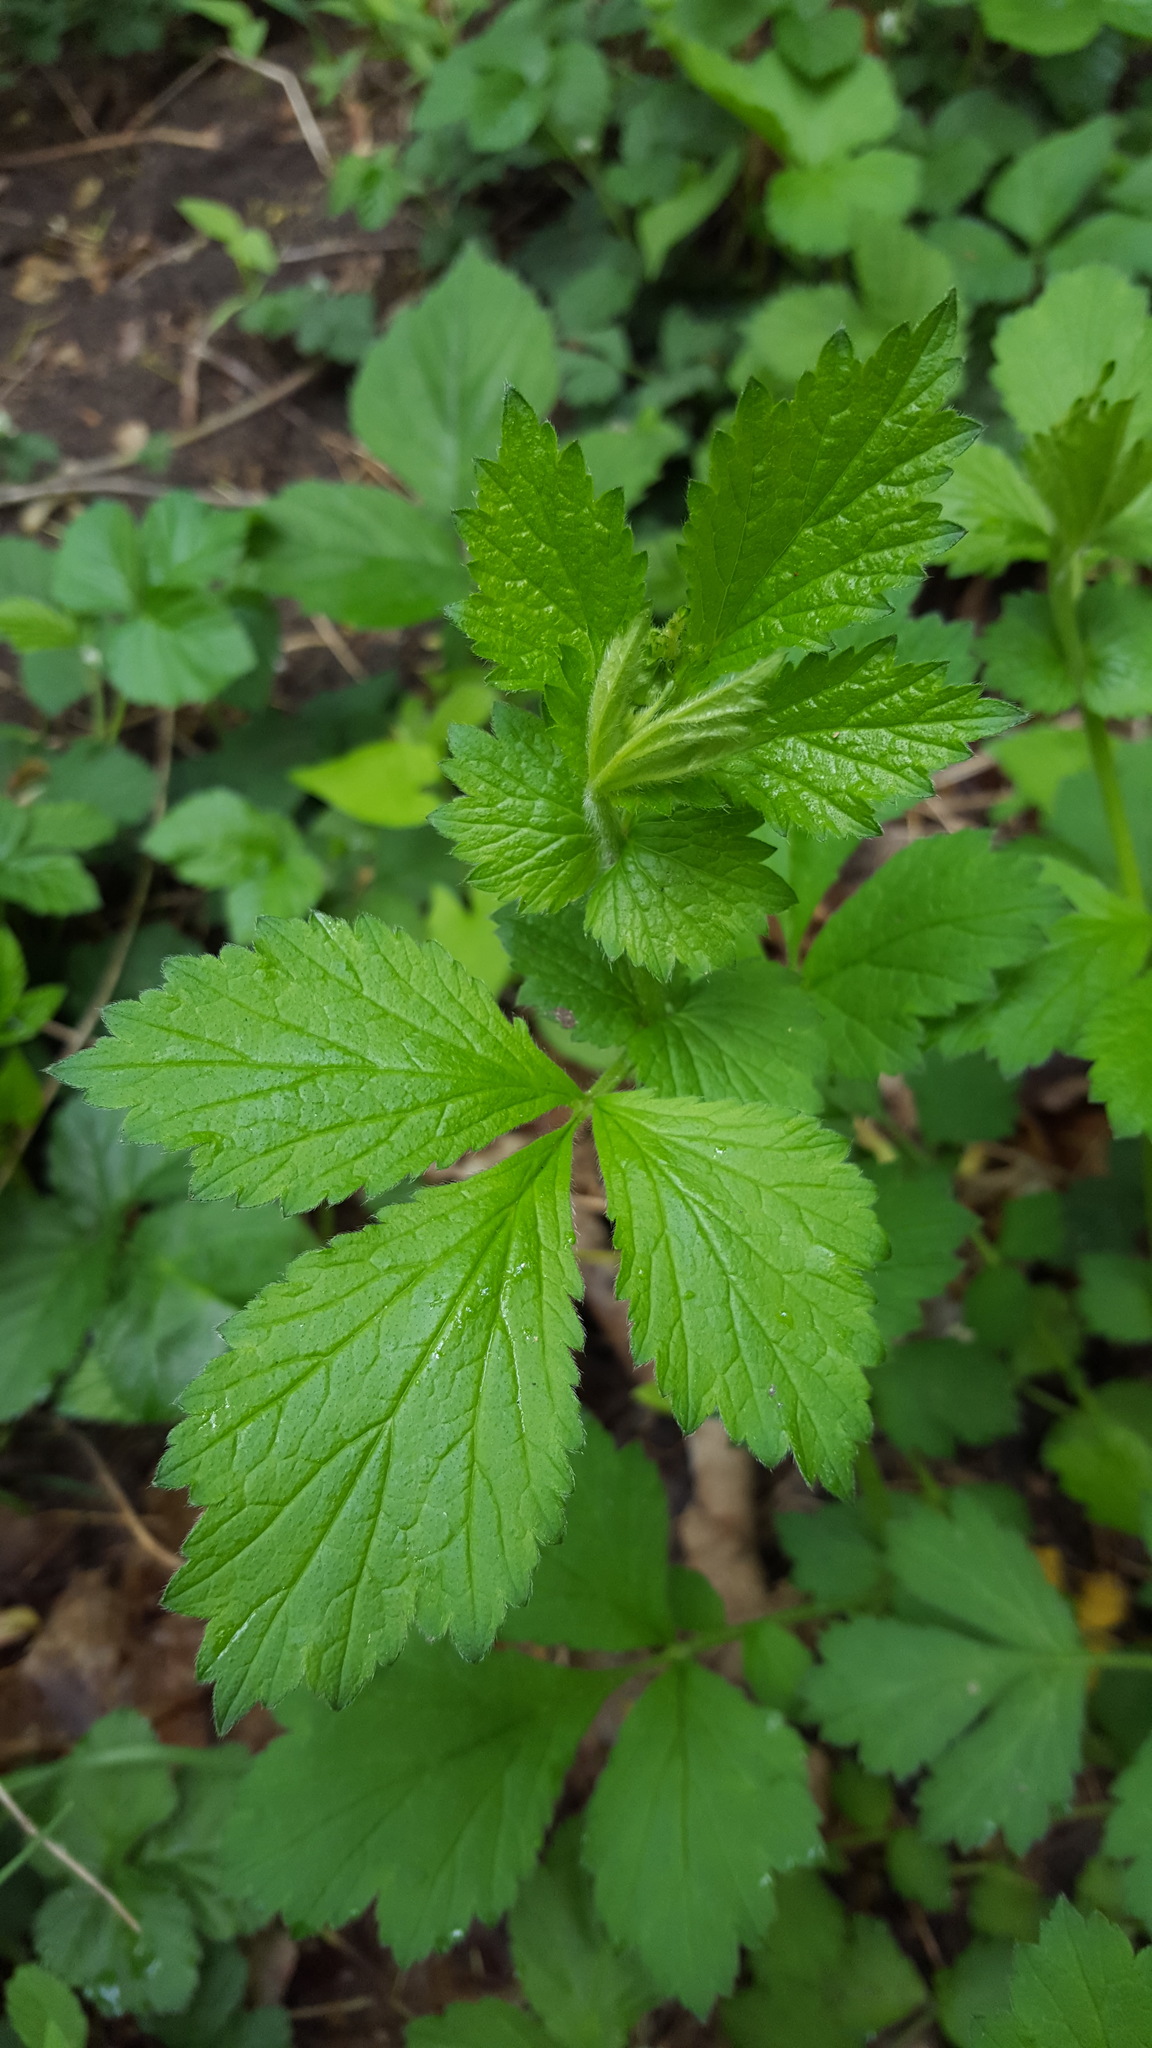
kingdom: Plantae
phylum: Tracheophyta
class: Magnoliopsida
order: Rosales
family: Rosaceae
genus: Geum
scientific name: Geum urbanum
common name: Wood avens
